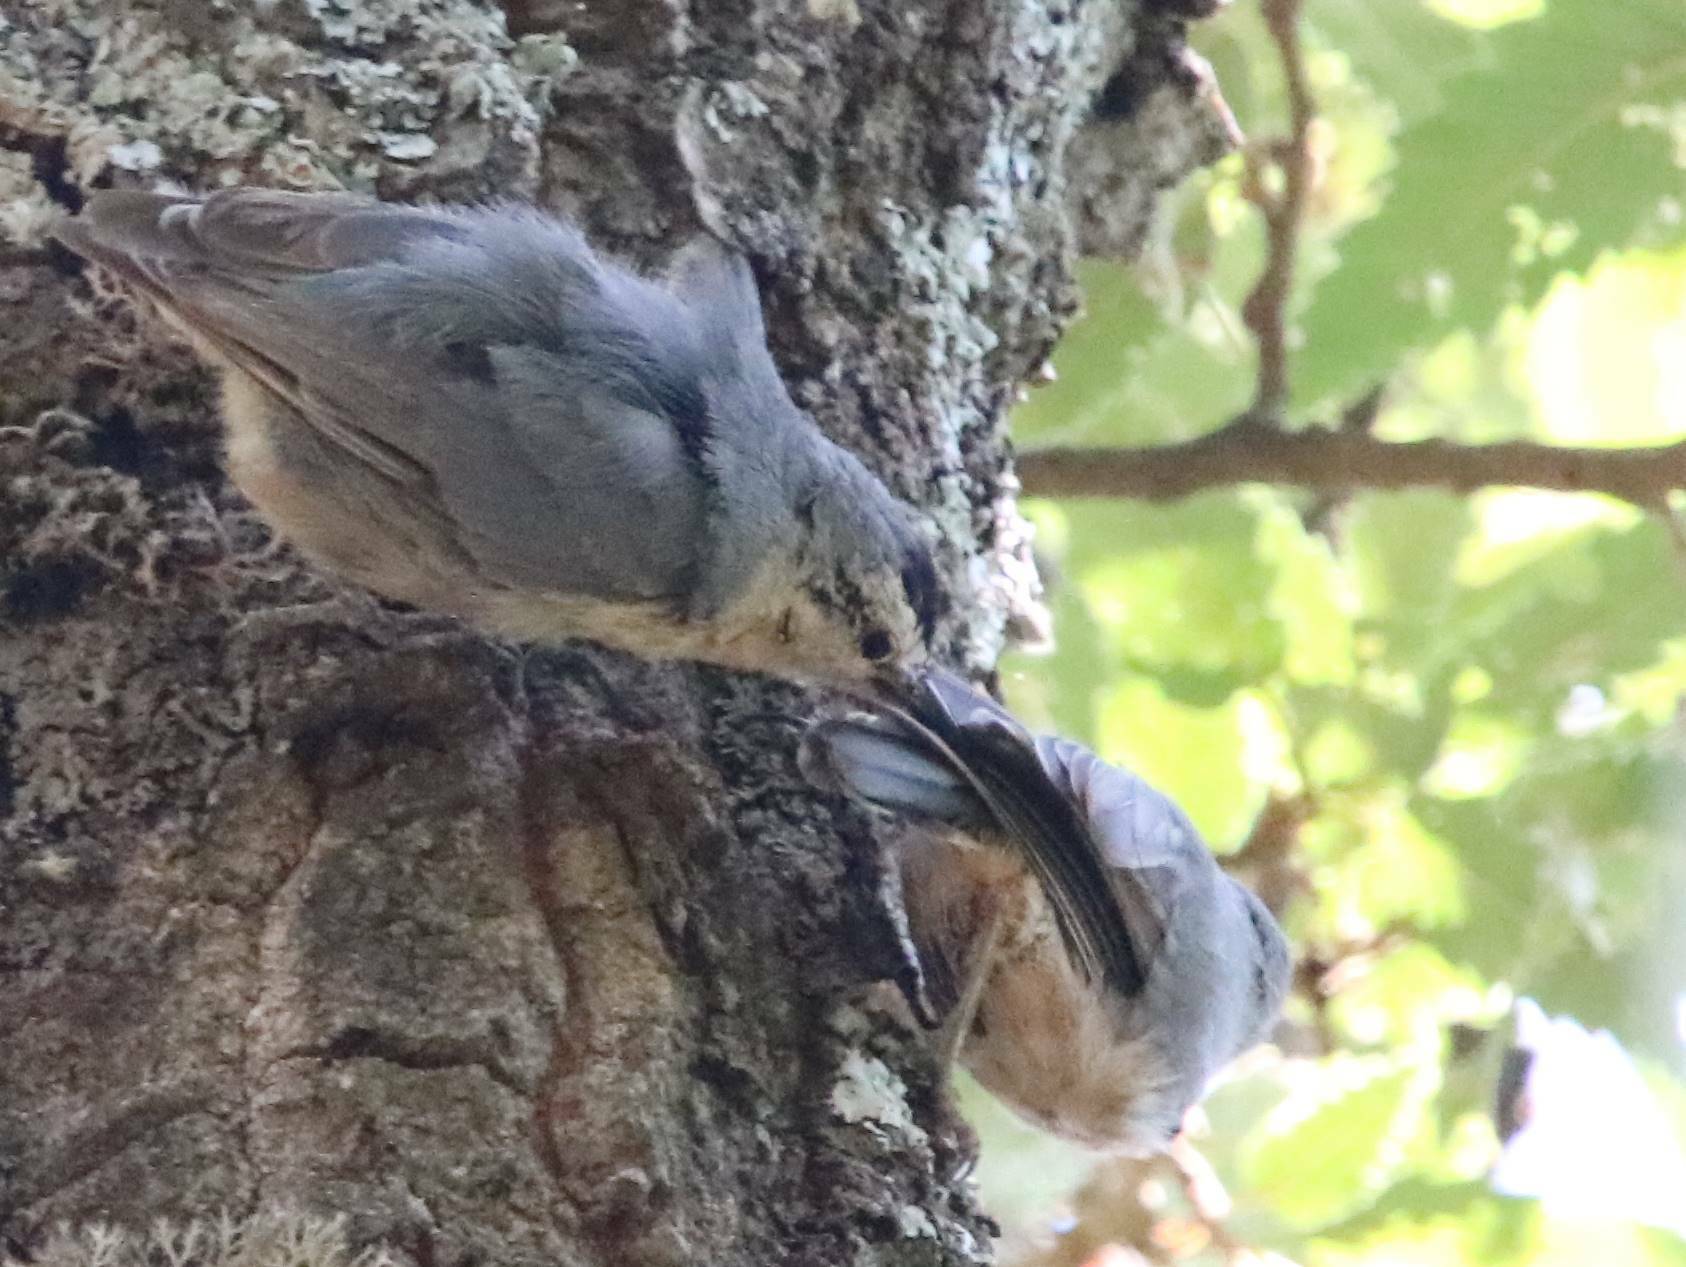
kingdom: Animalia
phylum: Chordata
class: Aves
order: Passeriformes
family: Sittidae
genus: Sitta
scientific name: Sitta ledanti
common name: Algerian nuthatch
